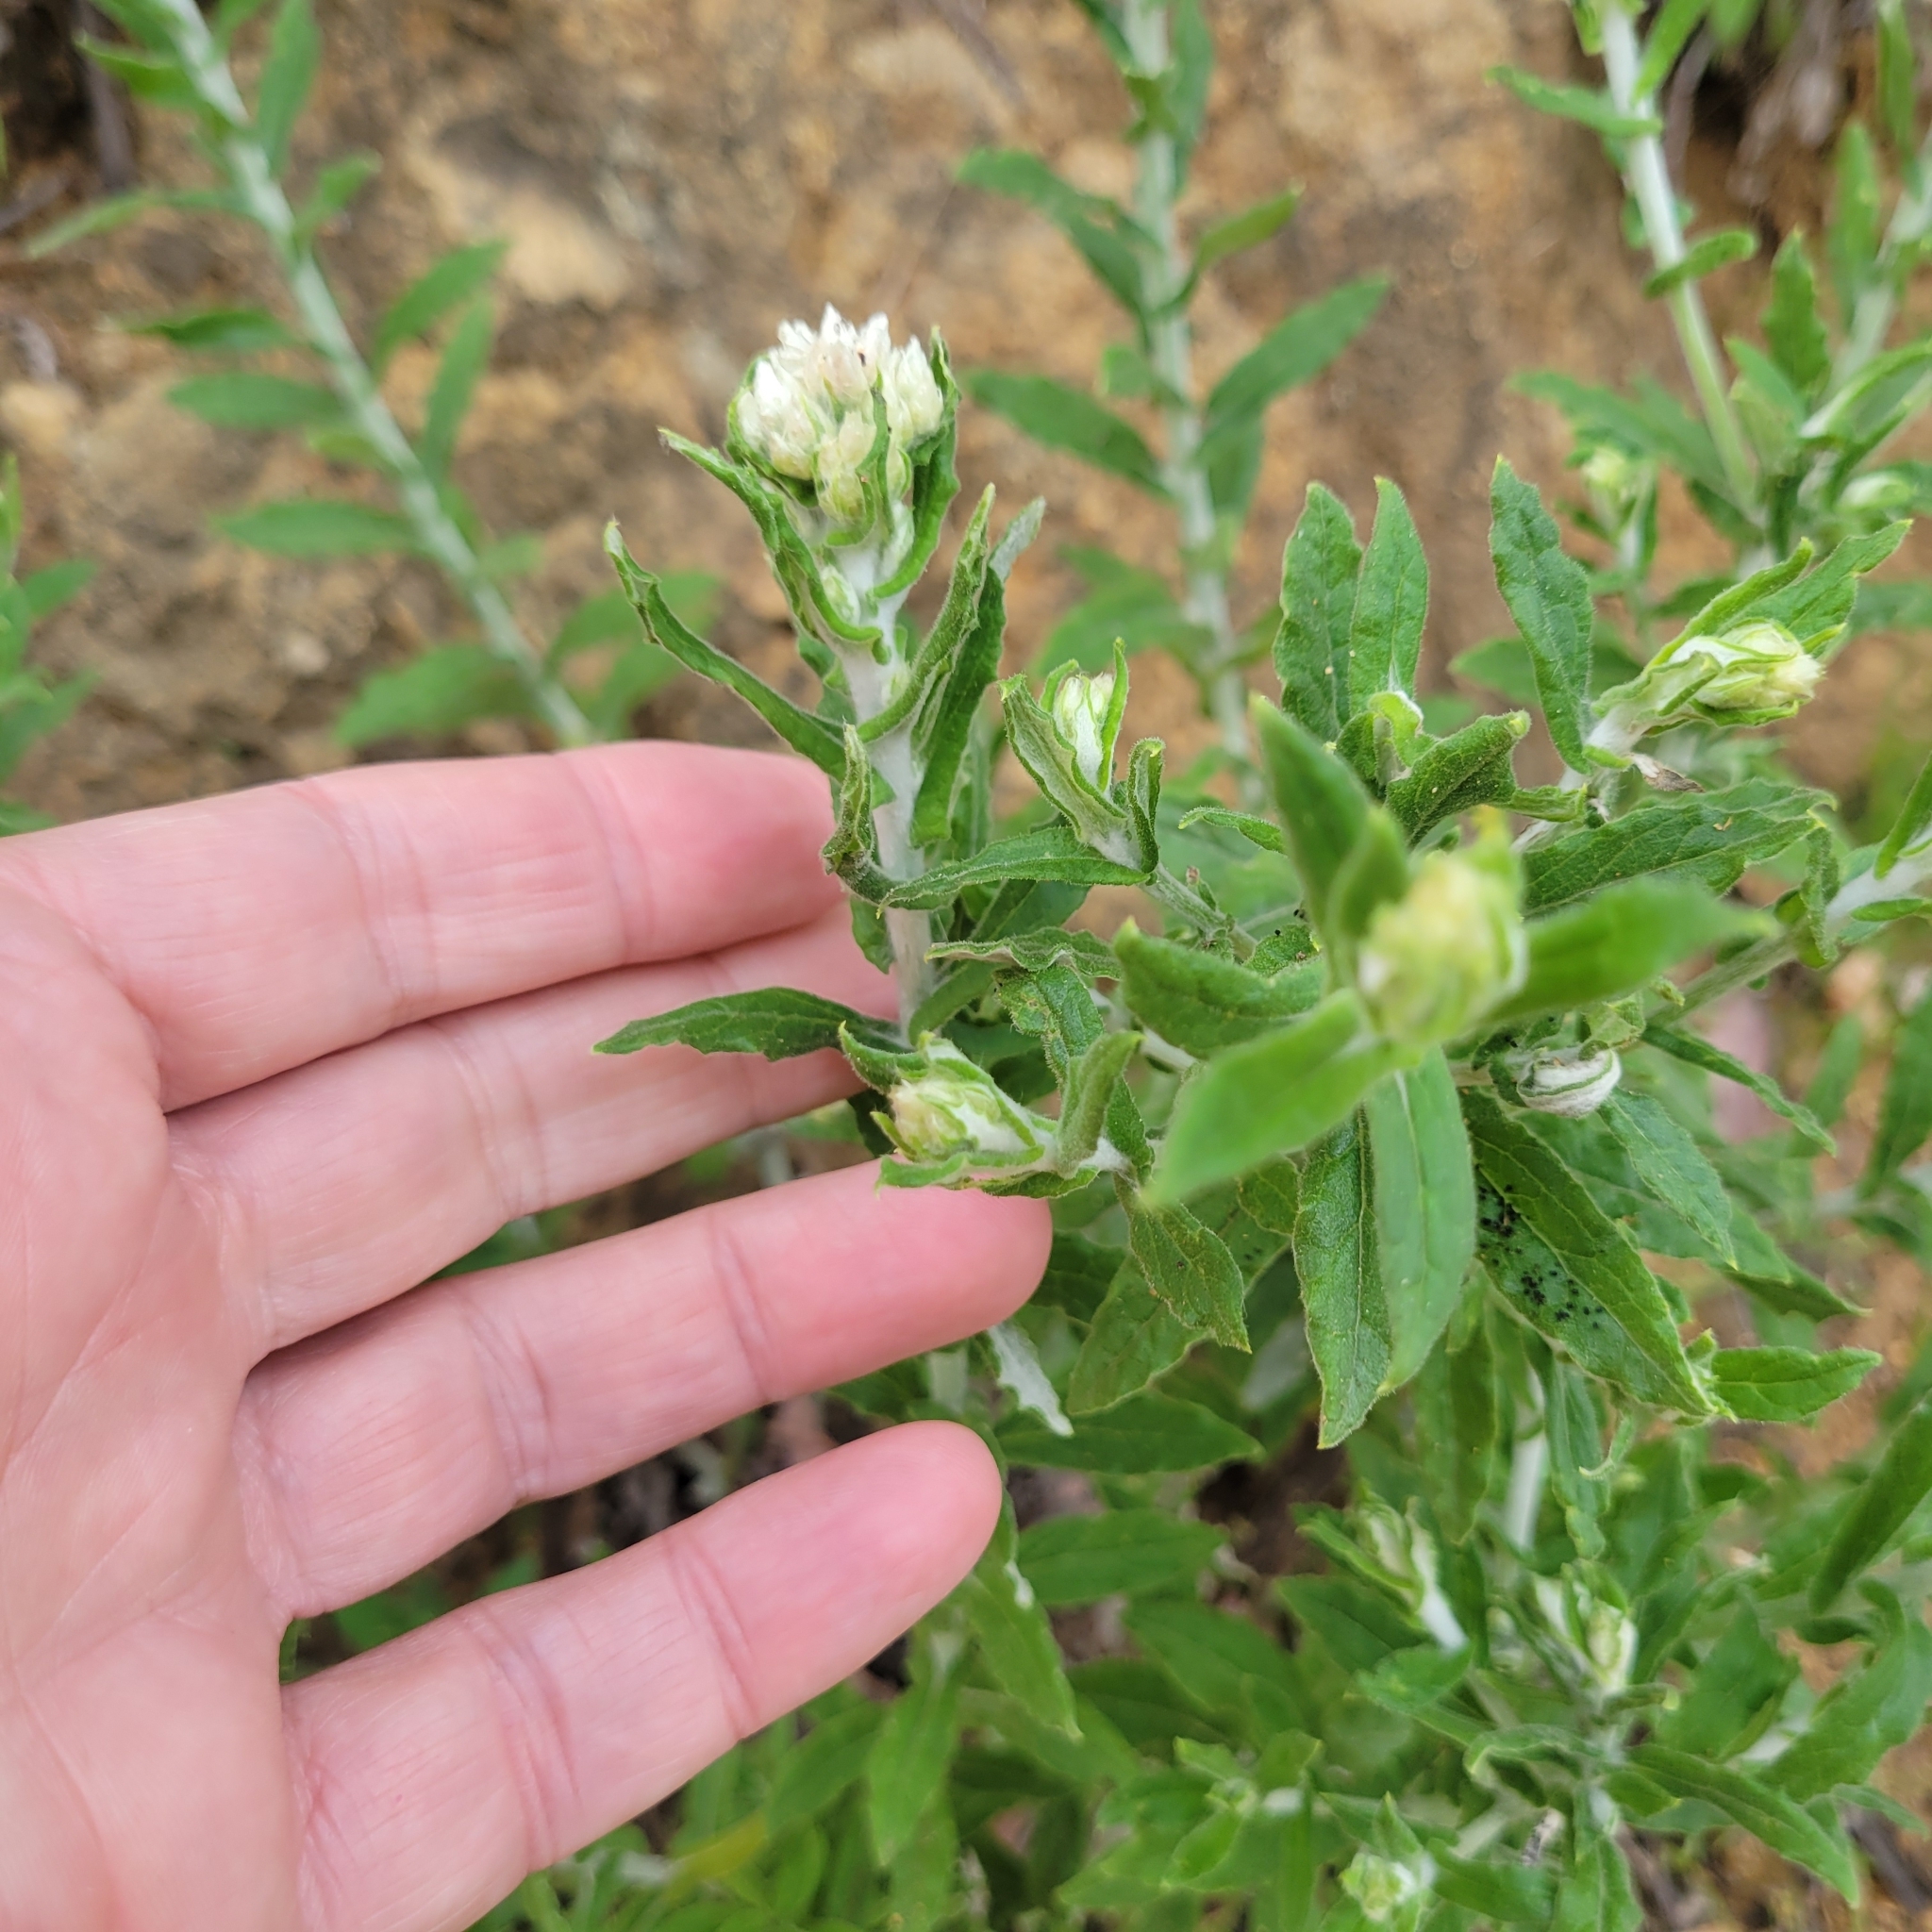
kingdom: Plantae
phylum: Tracheophyta
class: Magnoliopsida
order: Asterales
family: Asteraceae
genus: Pseudognaphalium
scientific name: Pseudognaphalium biolettii
